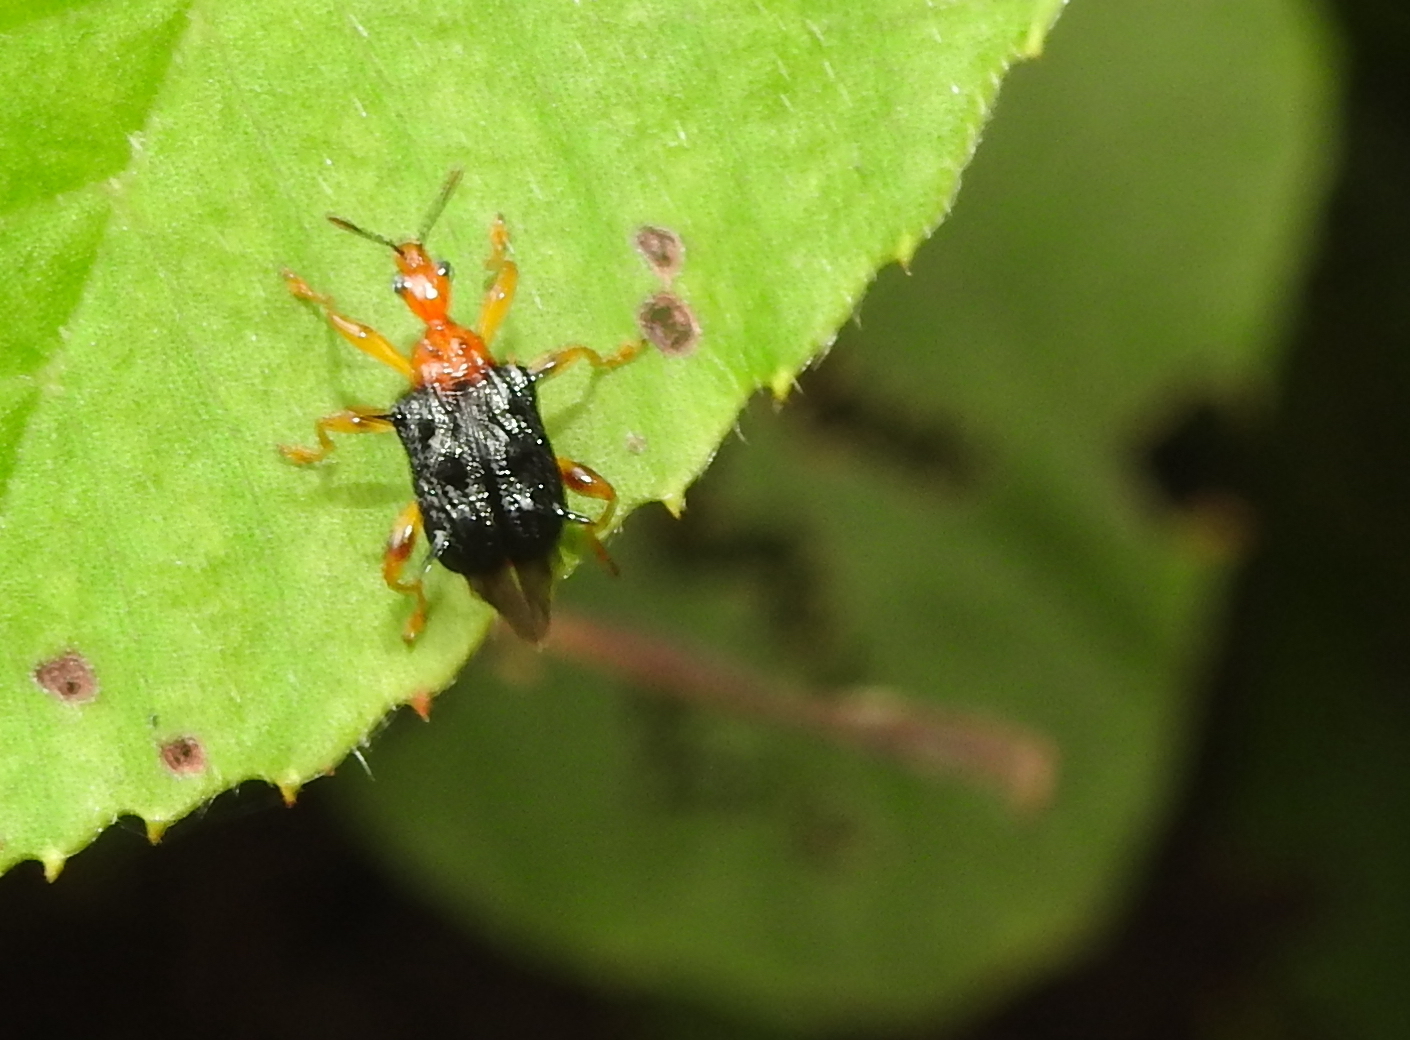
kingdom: Animalia
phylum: Arthropoda
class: Insecta
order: Coleoptera
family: Attelabidae
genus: Hoplapoderus
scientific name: Hoplapoderus hystrix
